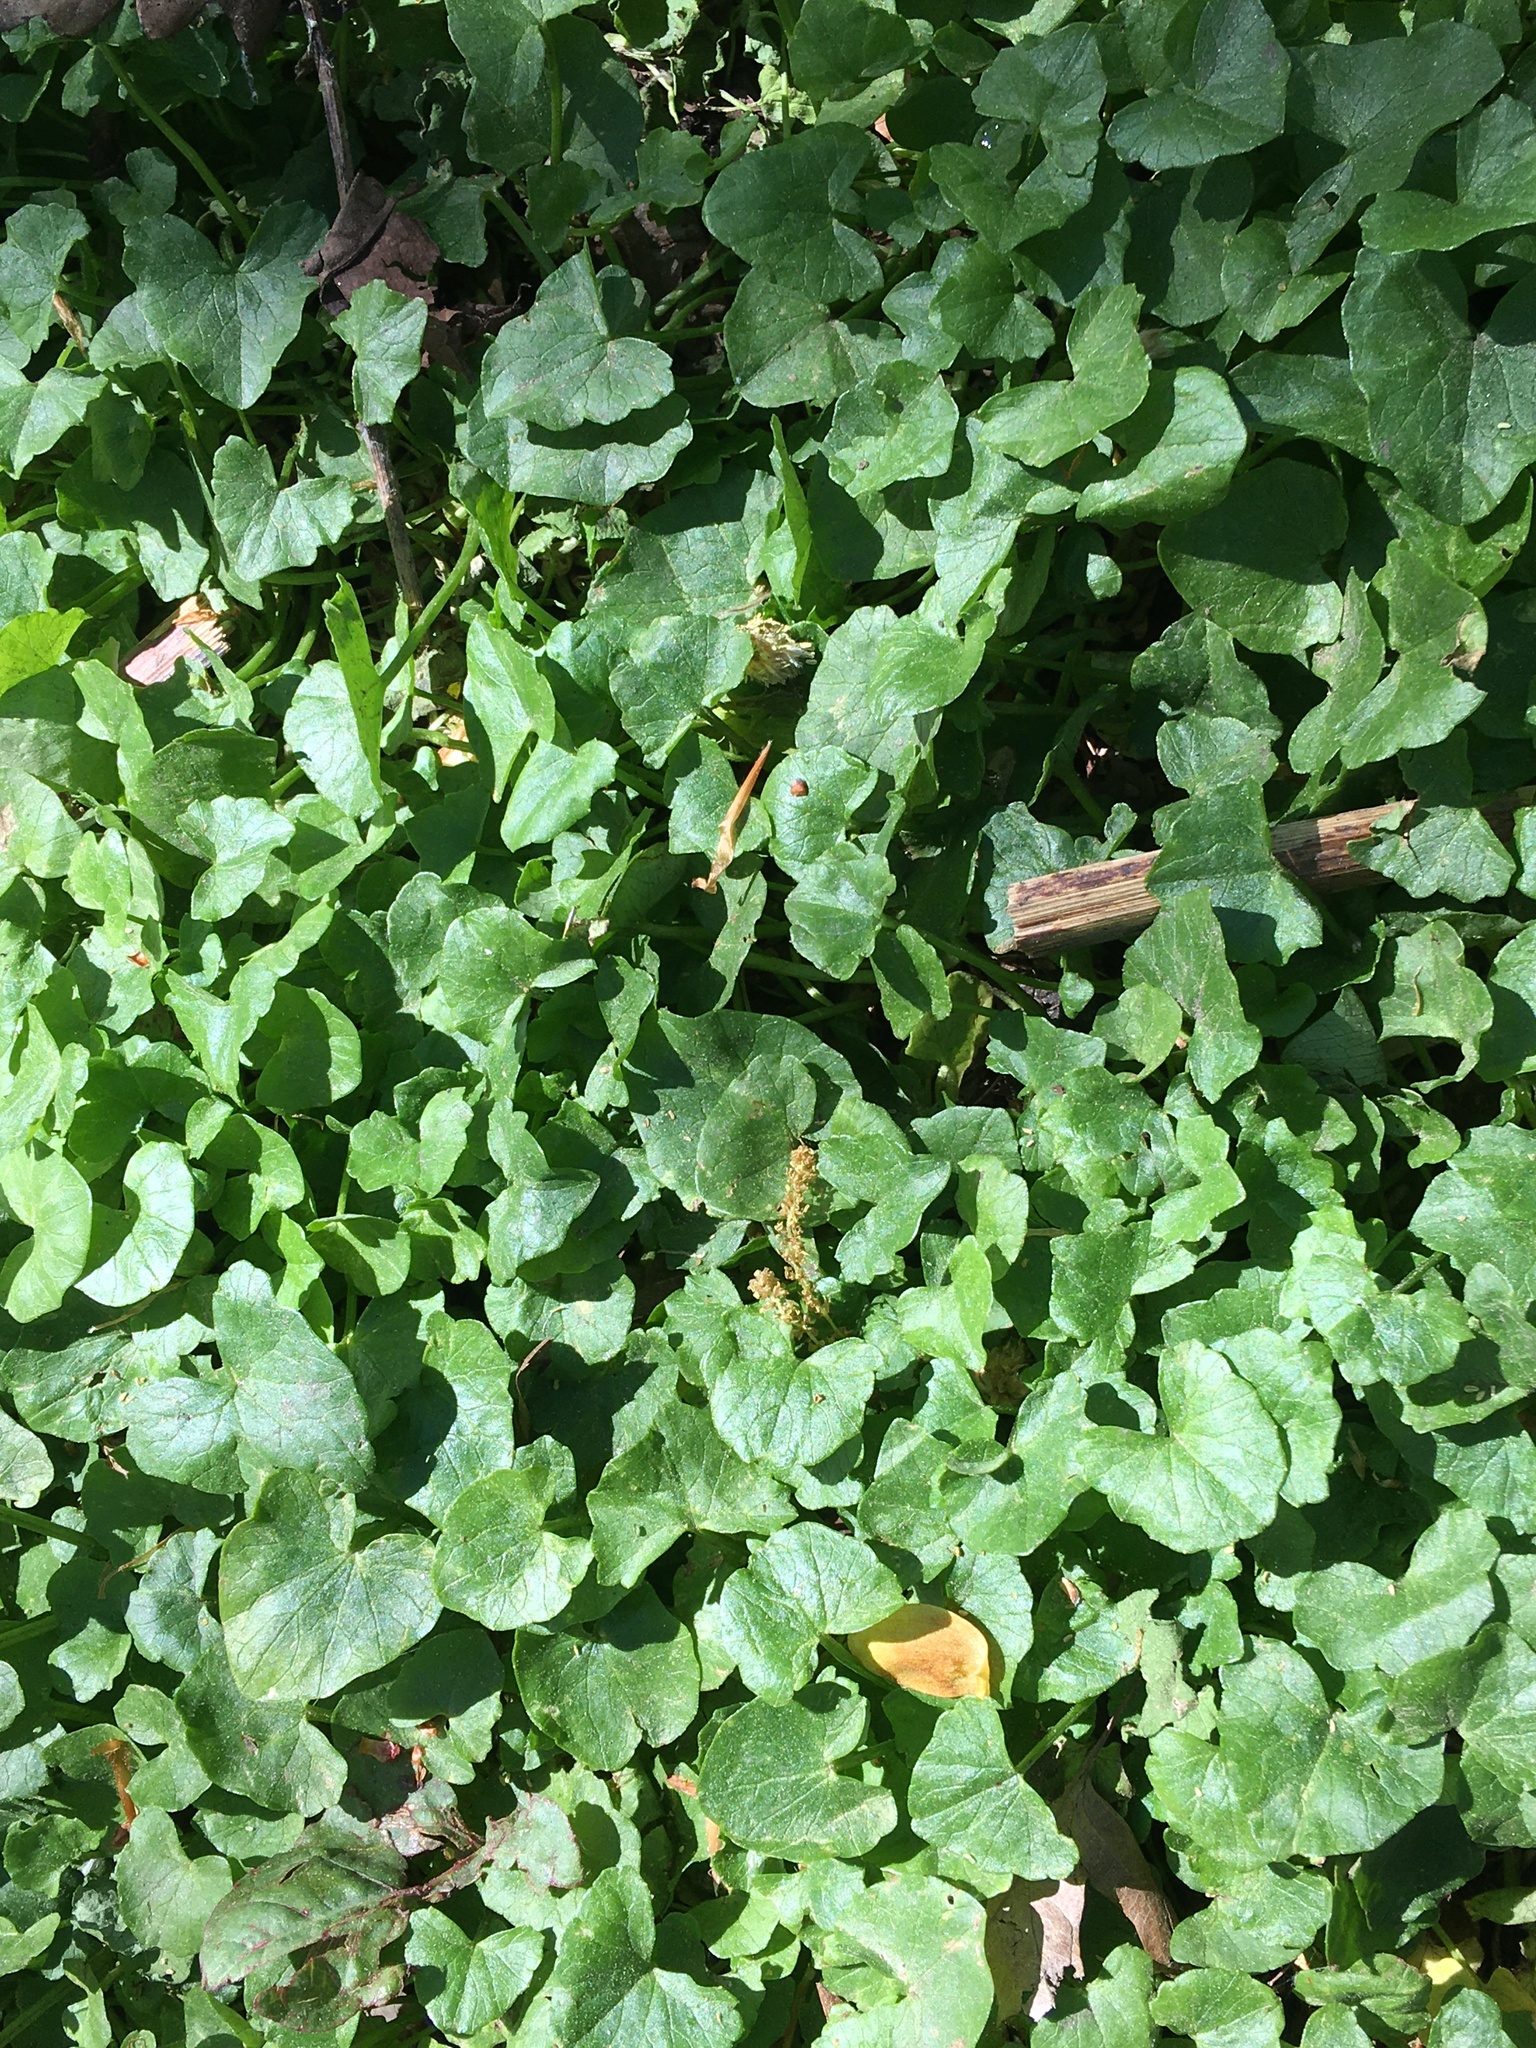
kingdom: Plantae
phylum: Tracheophyta
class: Magnoliopsida
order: Ranunculales
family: Ranunculaceae
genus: Ficaria
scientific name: Ficaria verna
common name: Lesser celandine
